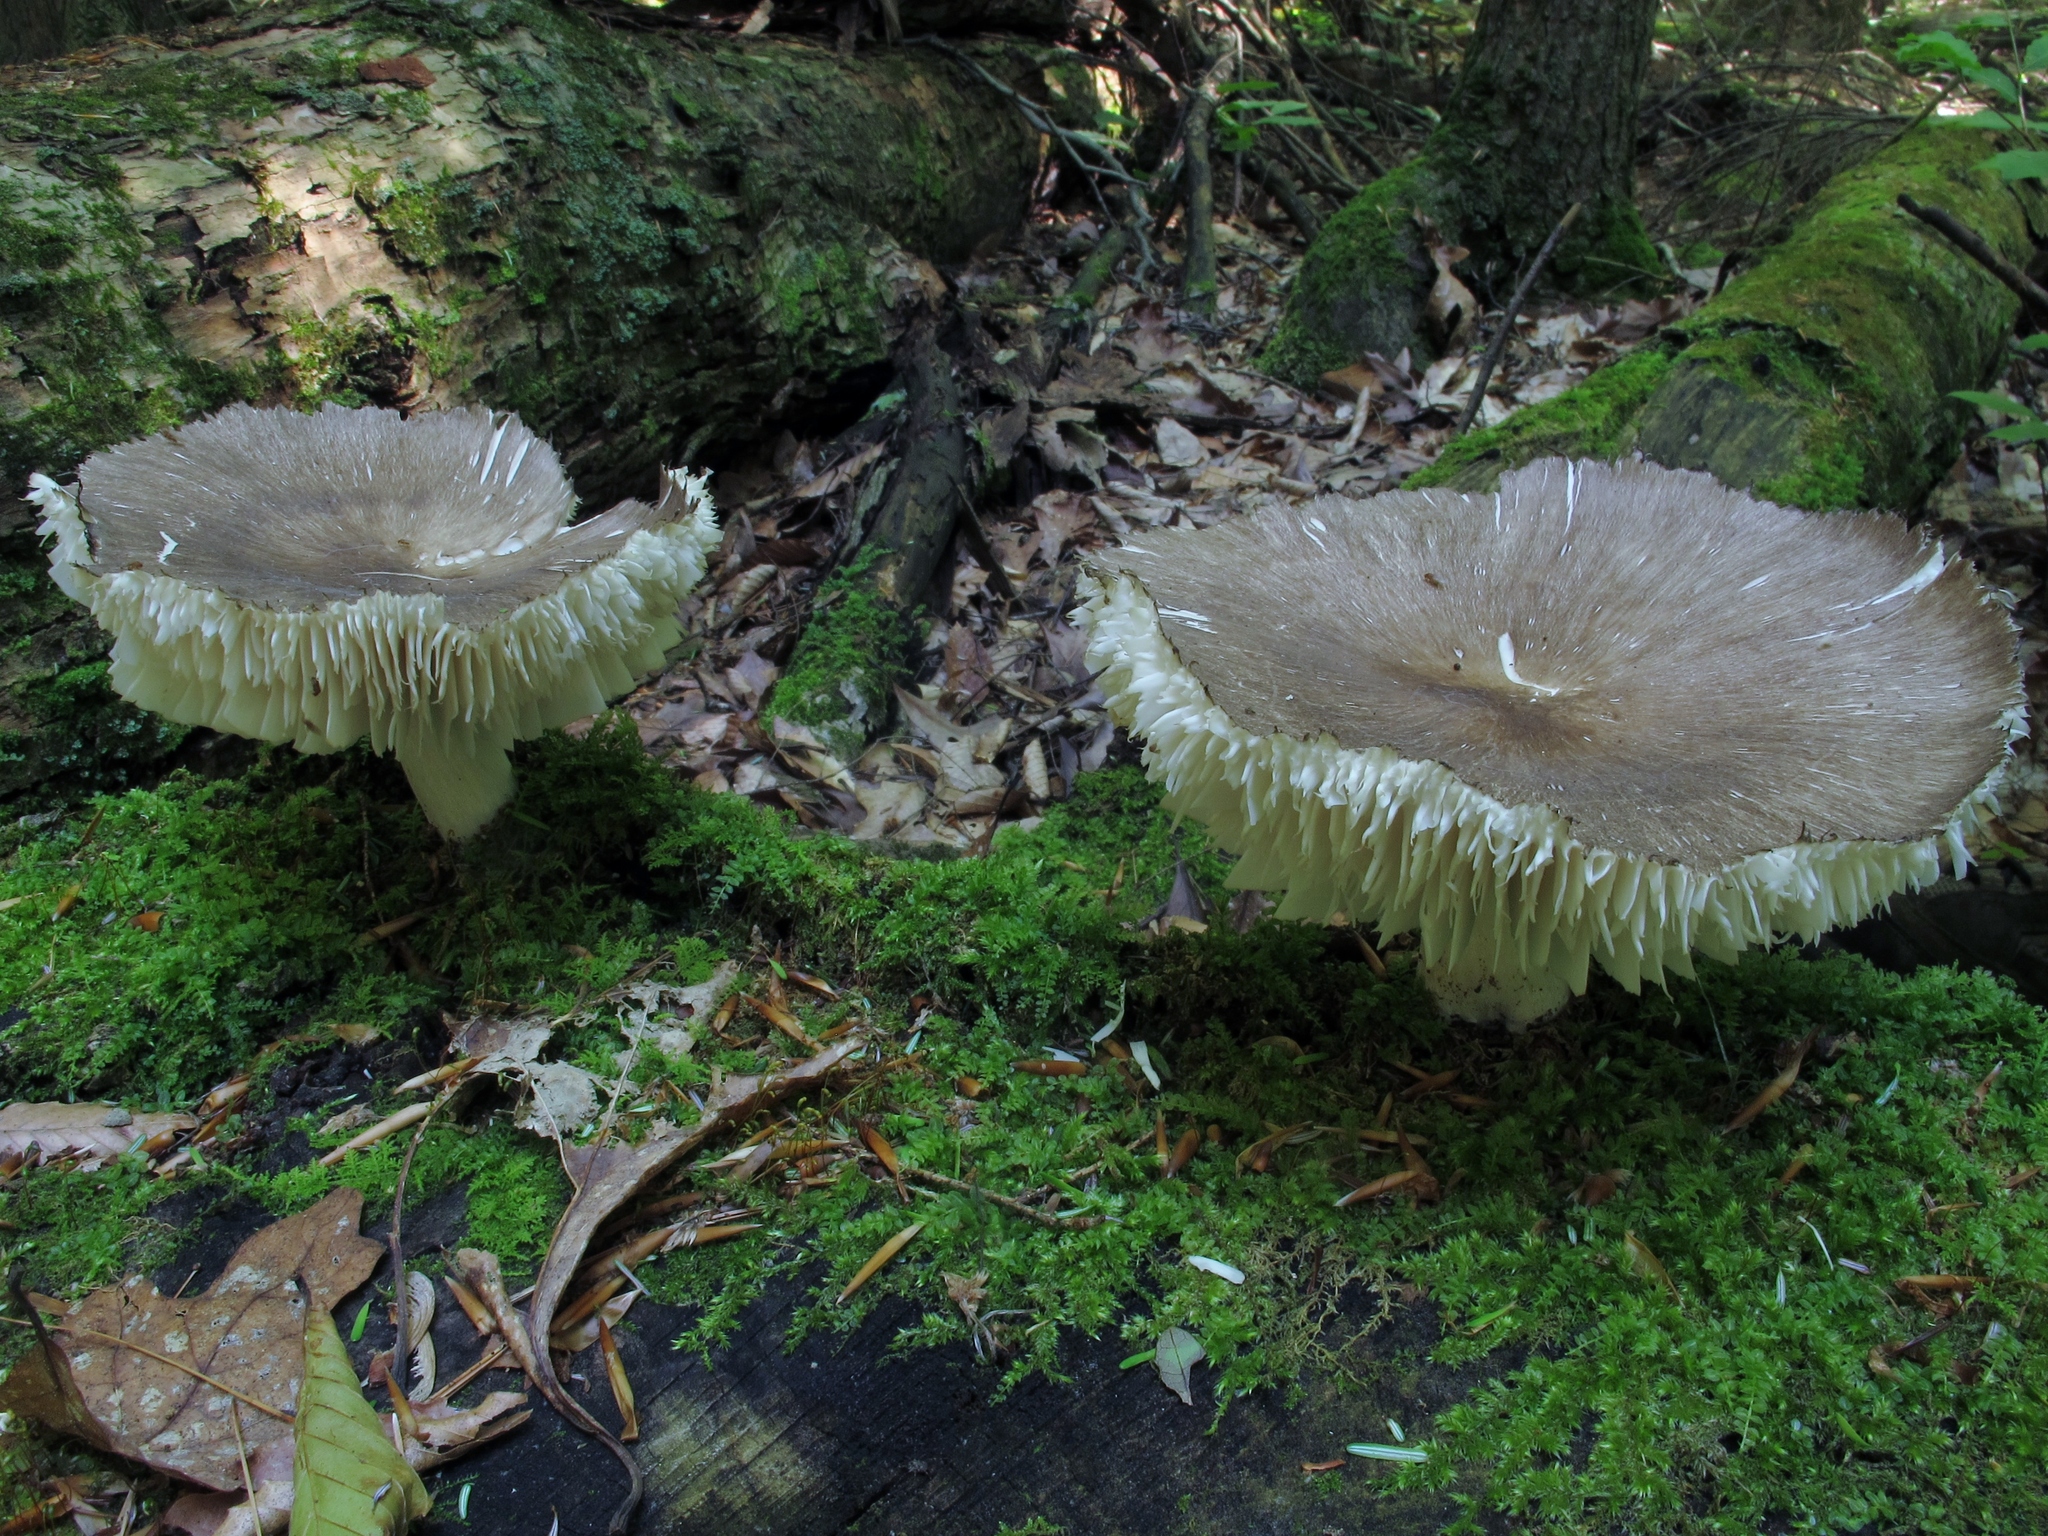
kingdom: Fungi
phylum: Basidiomycota
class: Agaricomycetes
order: Agaricales
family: Tricholomataceae
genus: Megacollybia
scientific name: Megacollybia rodmanii
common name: Eastern american platterful mushroom
